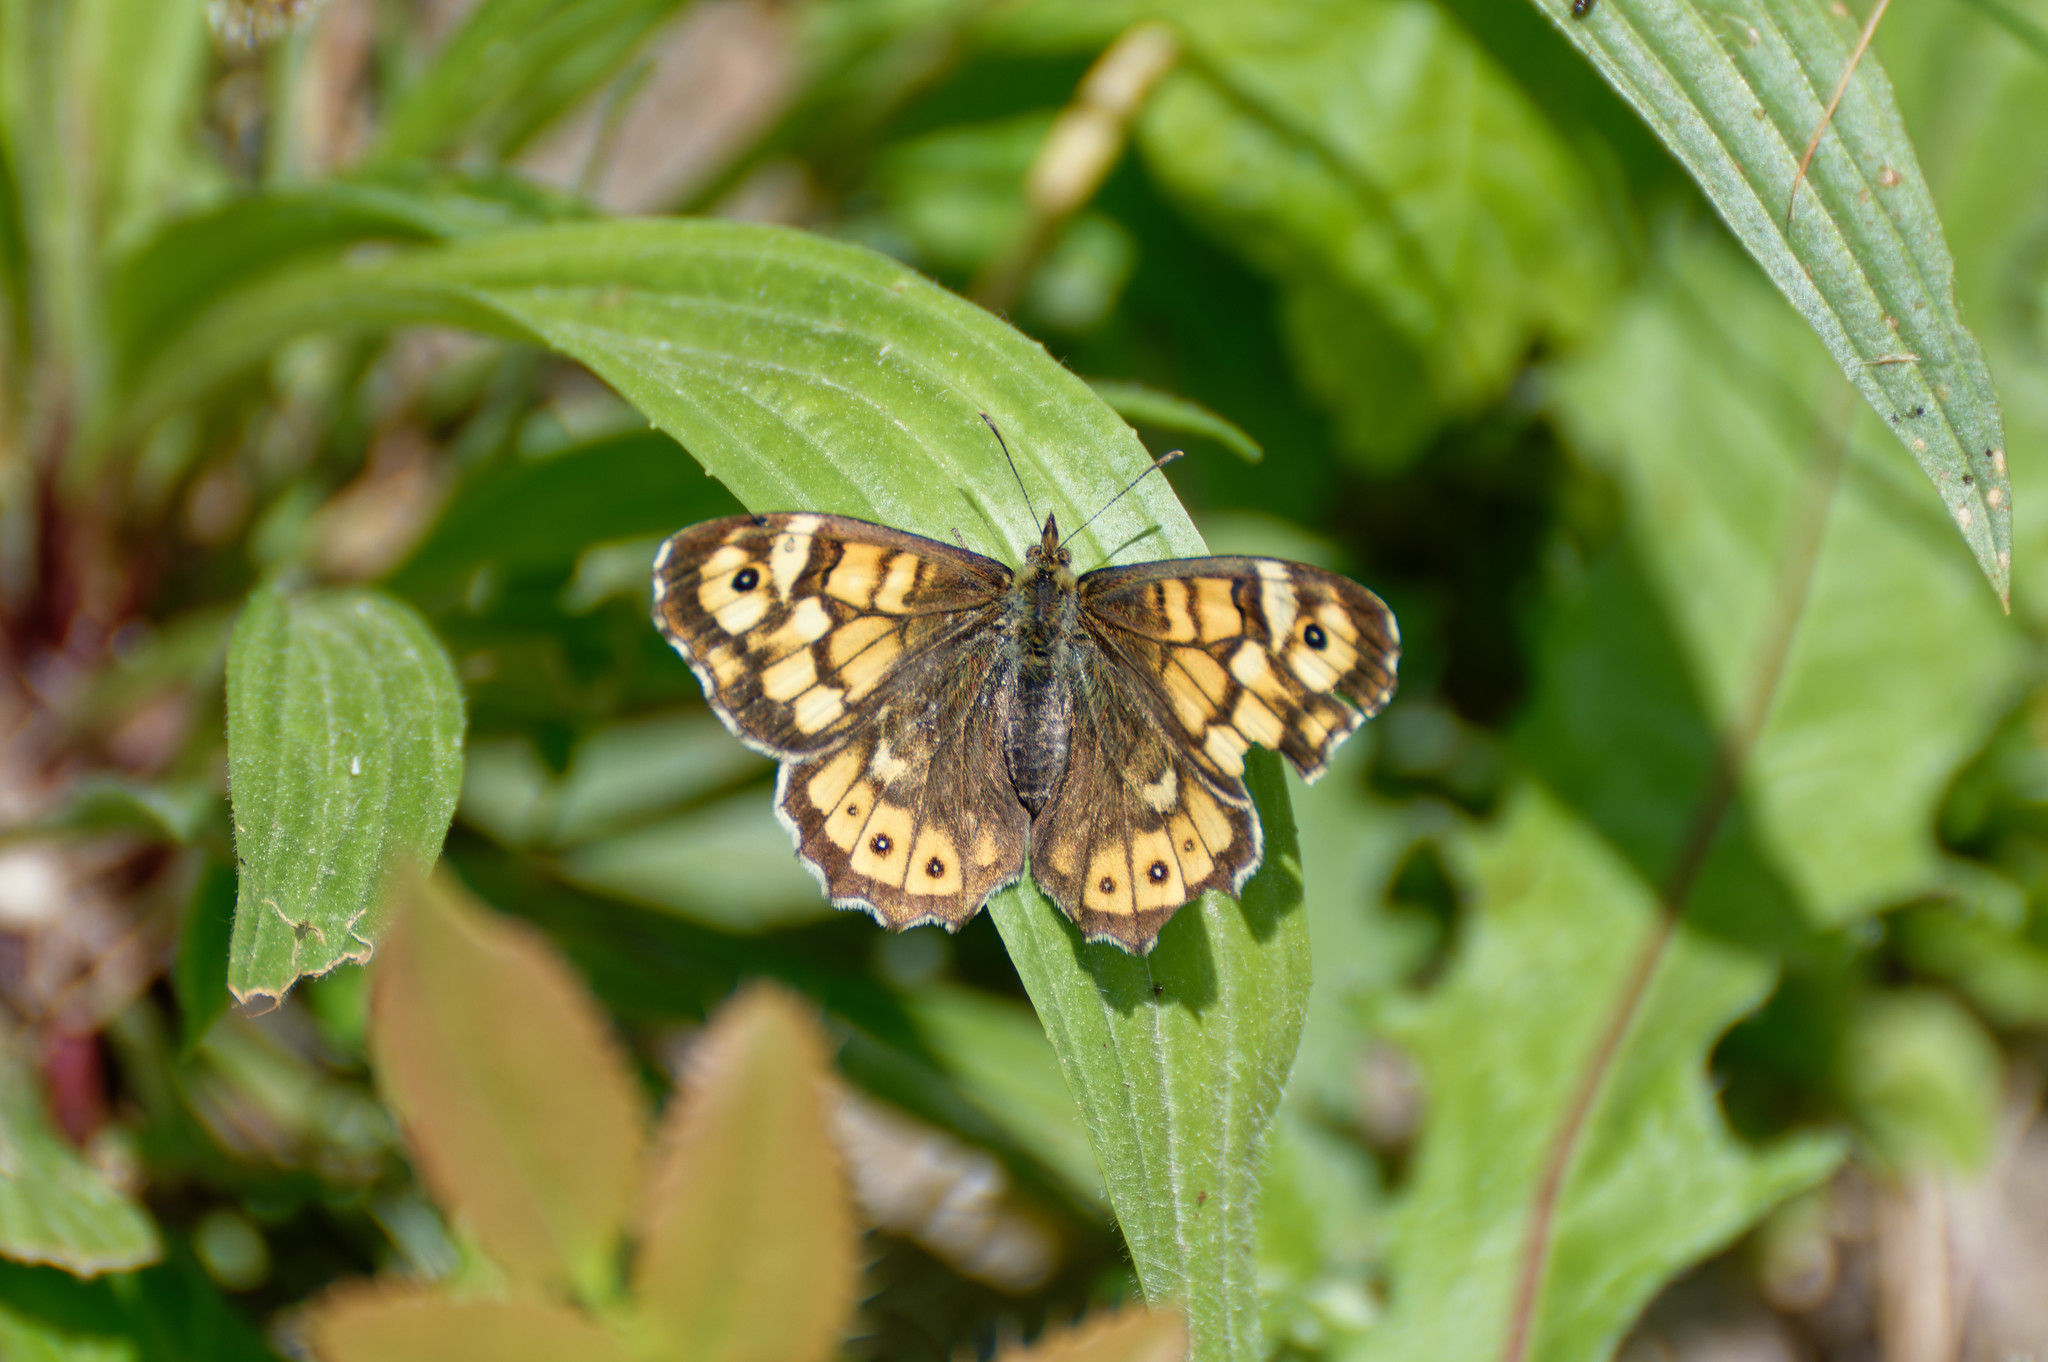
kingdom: Animalia
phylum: Arthropoda
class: Insecta
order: Lepidoptera
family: Nymphalidae
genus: Pararge
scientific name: Pararge aegeria
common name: Speckled wood
